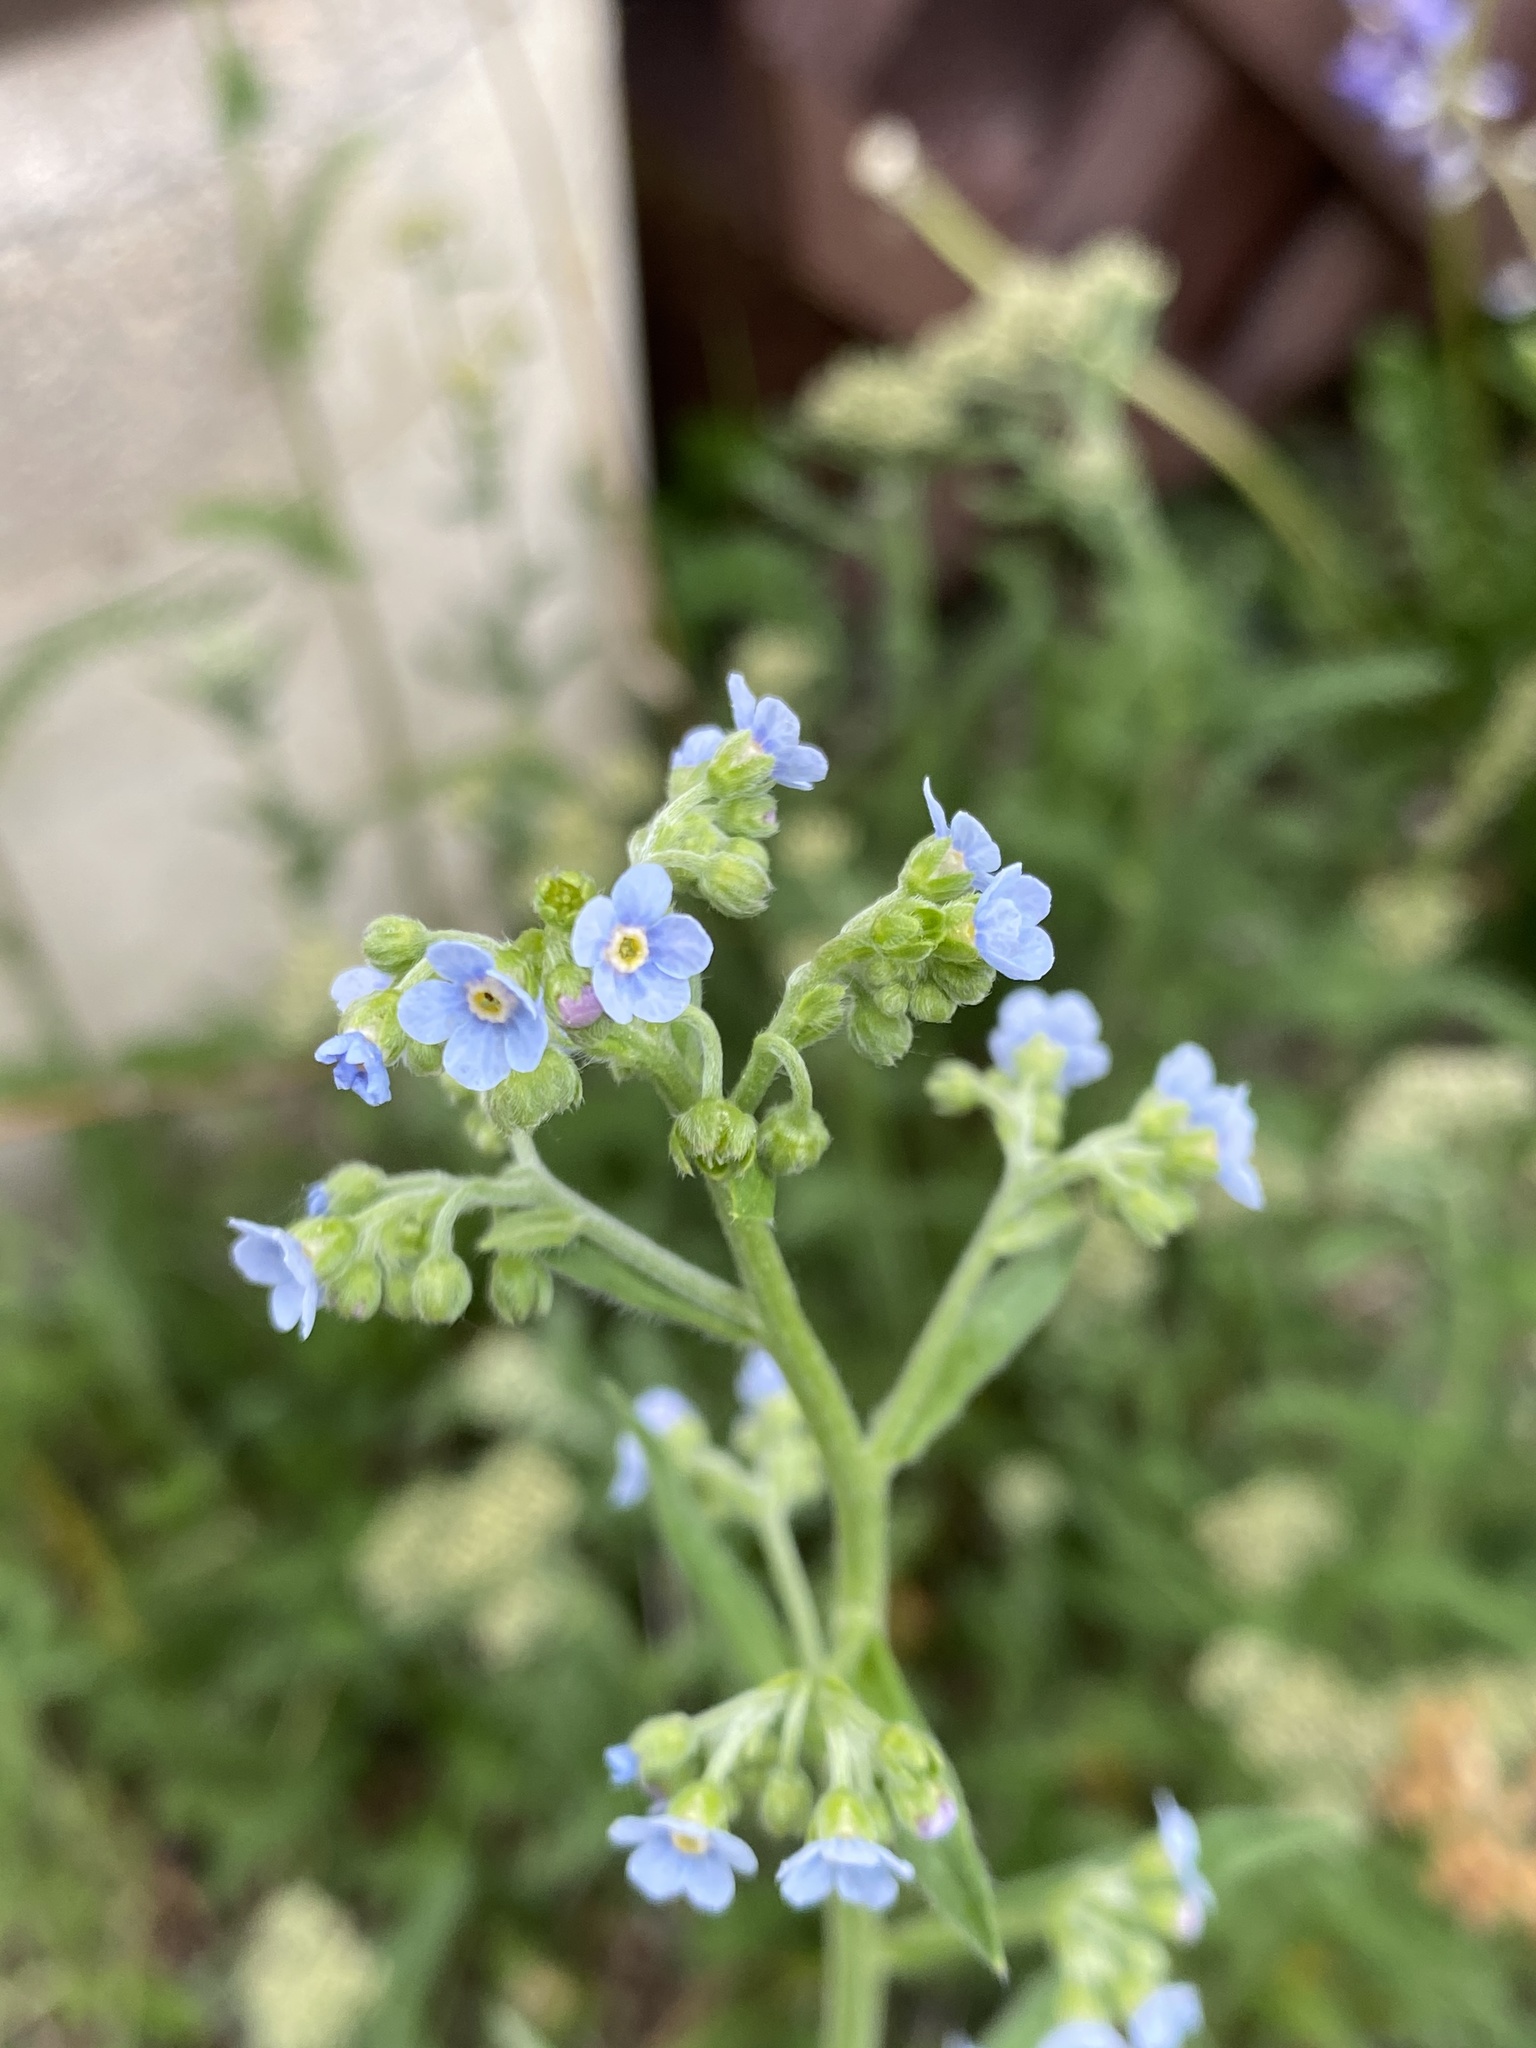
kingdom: Plantae
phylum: Tracheophyta
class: Magnoliopsida
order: Boraginales
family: Boraginaceae
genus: Hackelia
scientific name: Hackelia floribunda
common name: Large-flowered stickseed
